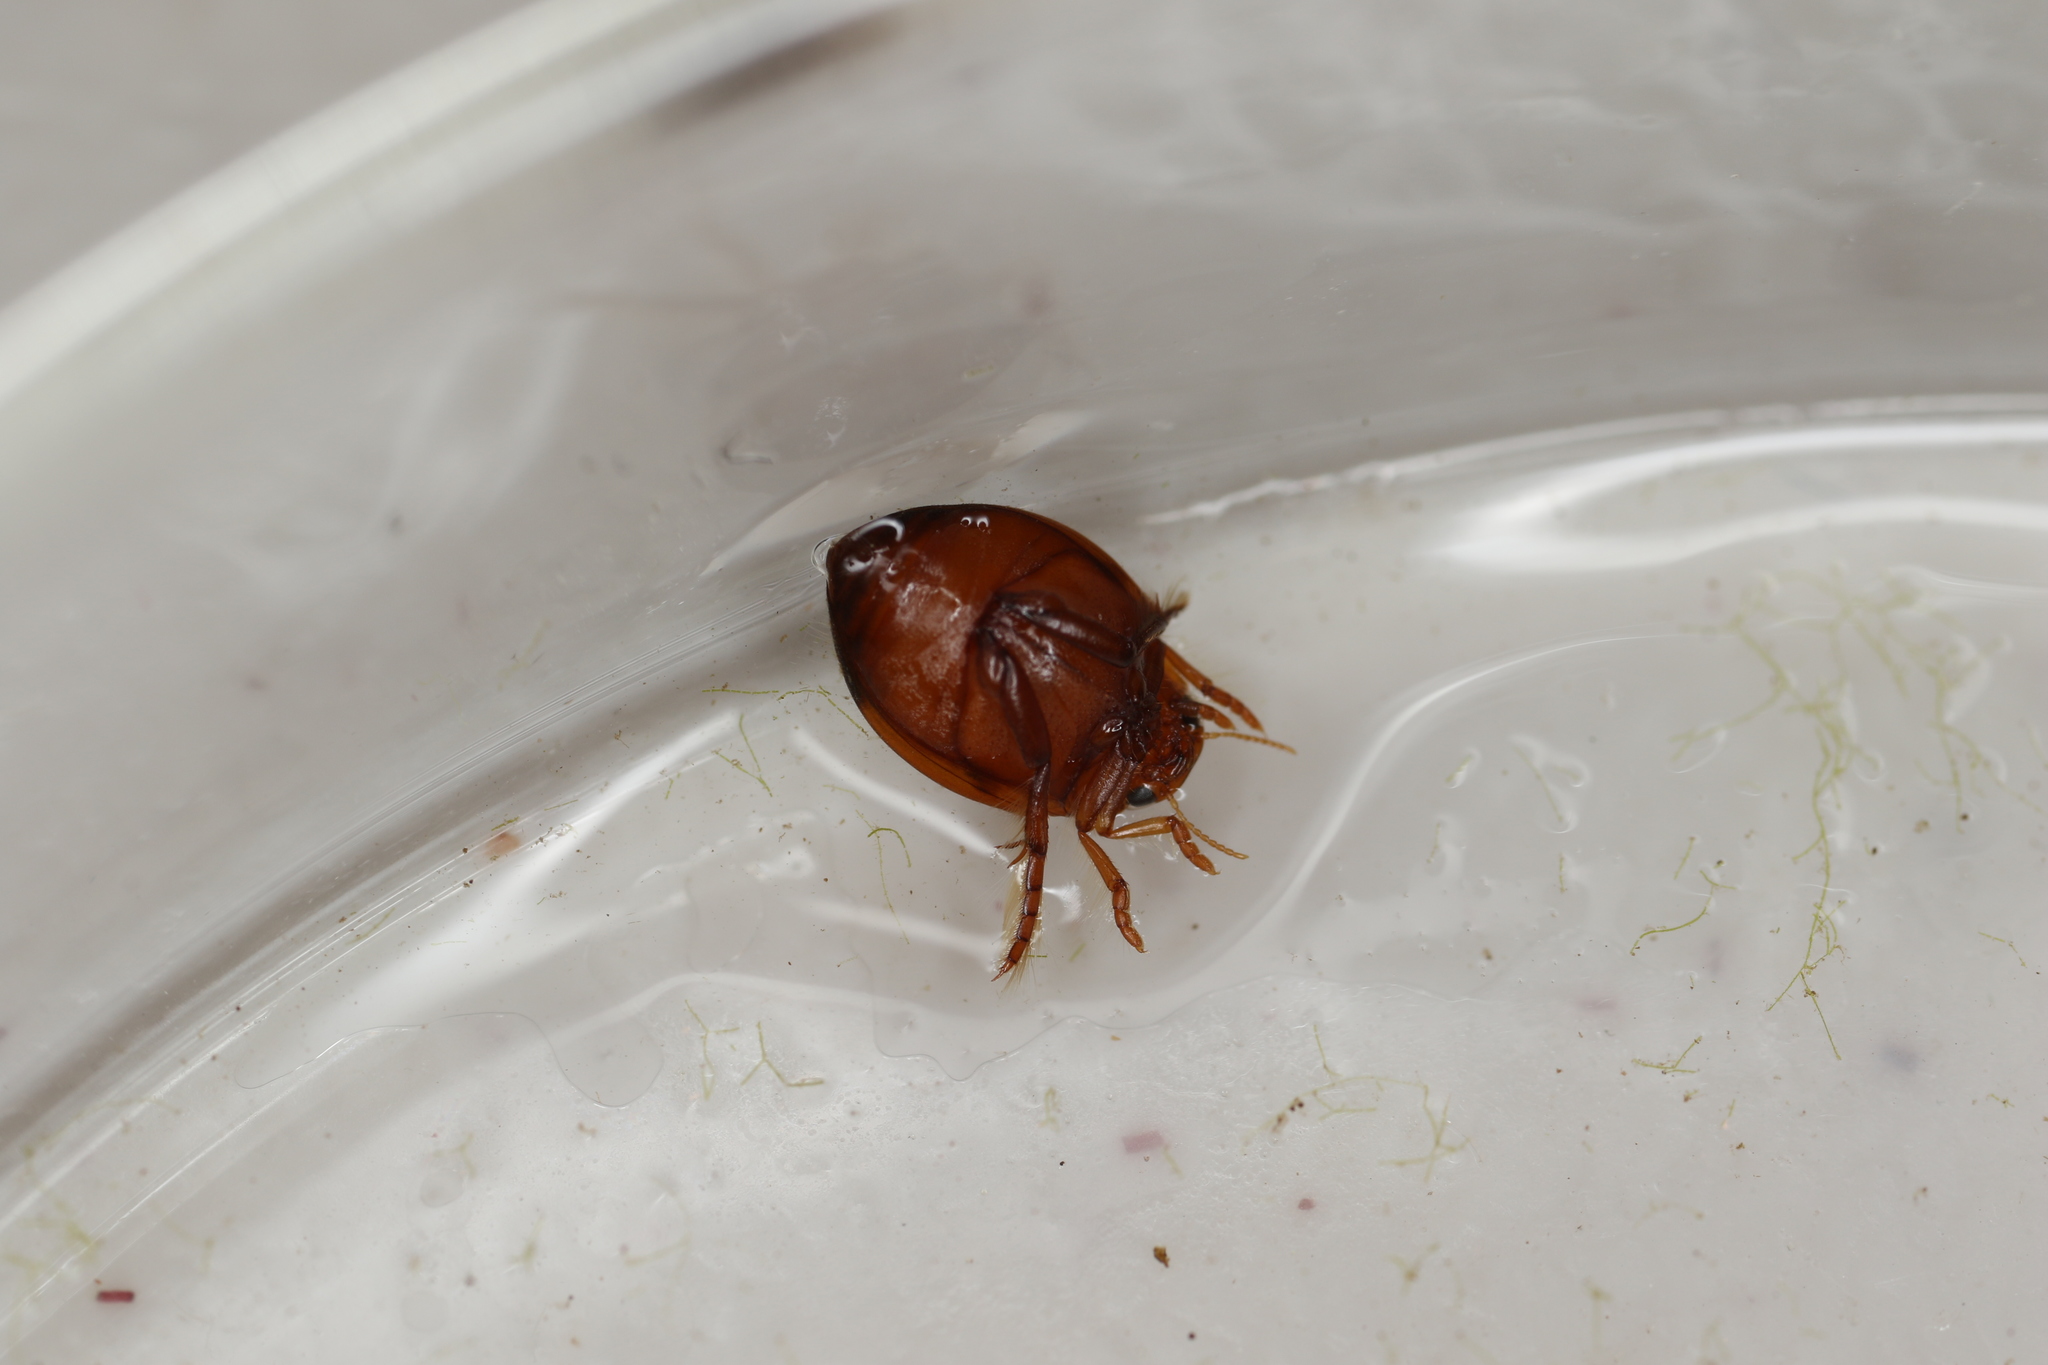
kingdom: Animalia
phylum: Arthropoda
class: Insecta
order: Coleoptera
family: Dytiscidae
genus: Hyphydrus
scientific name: Hyphydrus ovatus
